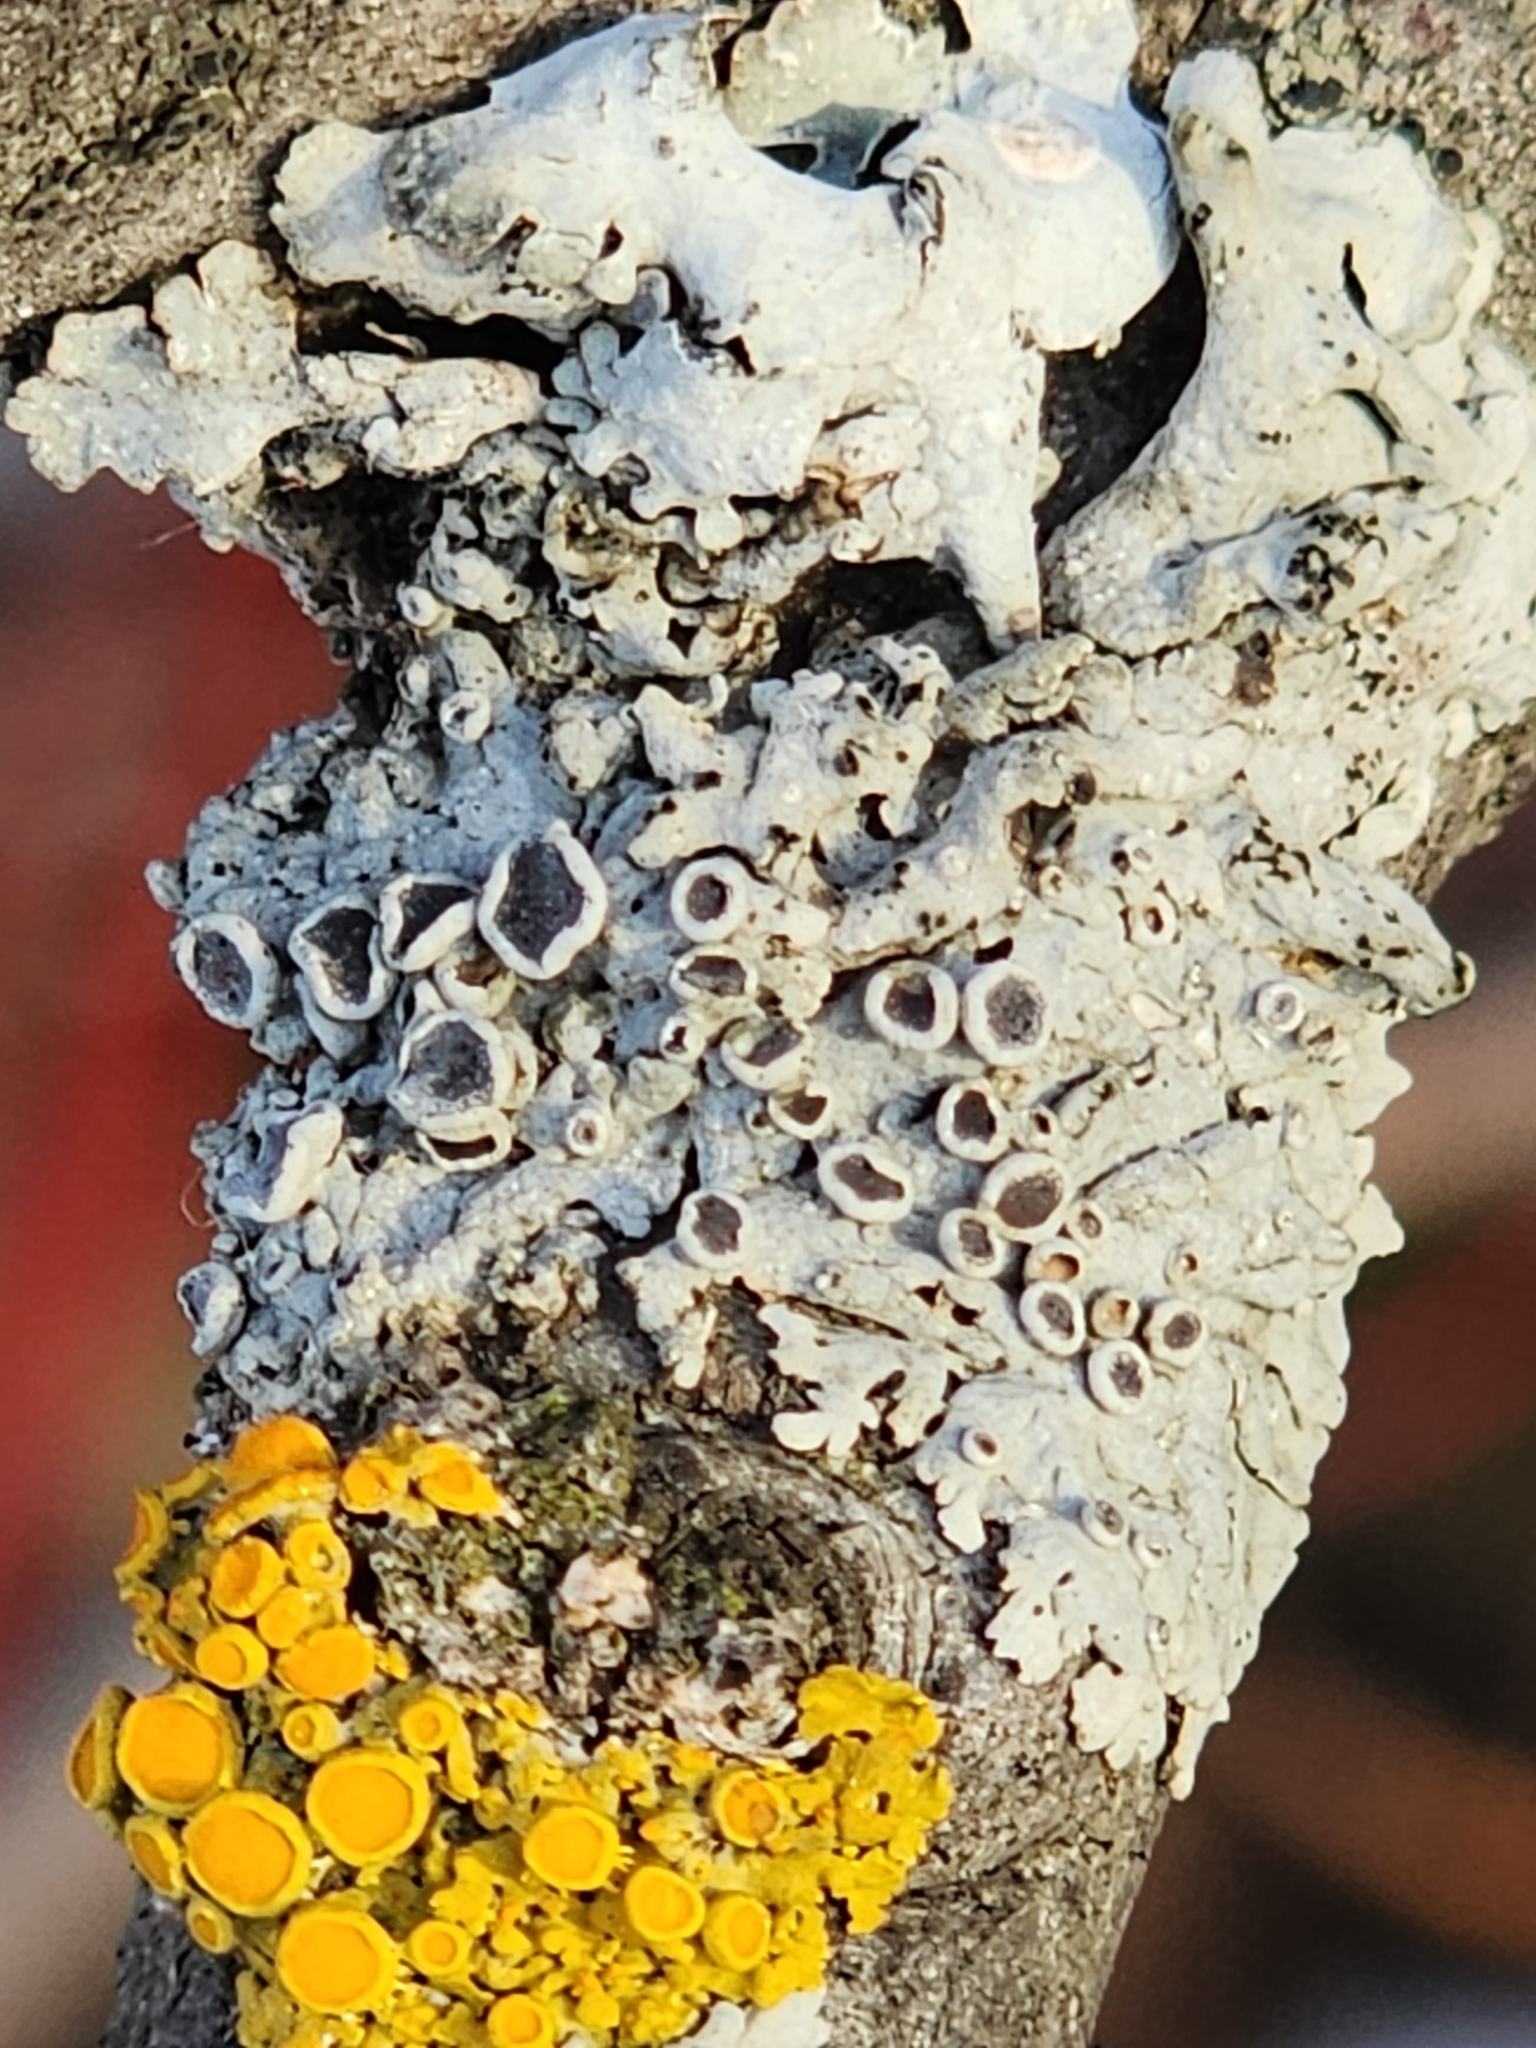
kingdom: Fungi
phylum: Ascomycota
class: Lecanoromycetes
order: Caliciales
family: Physciaceae
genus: Physcia
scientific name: Physcia stellaris
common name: Star rosette lichen
